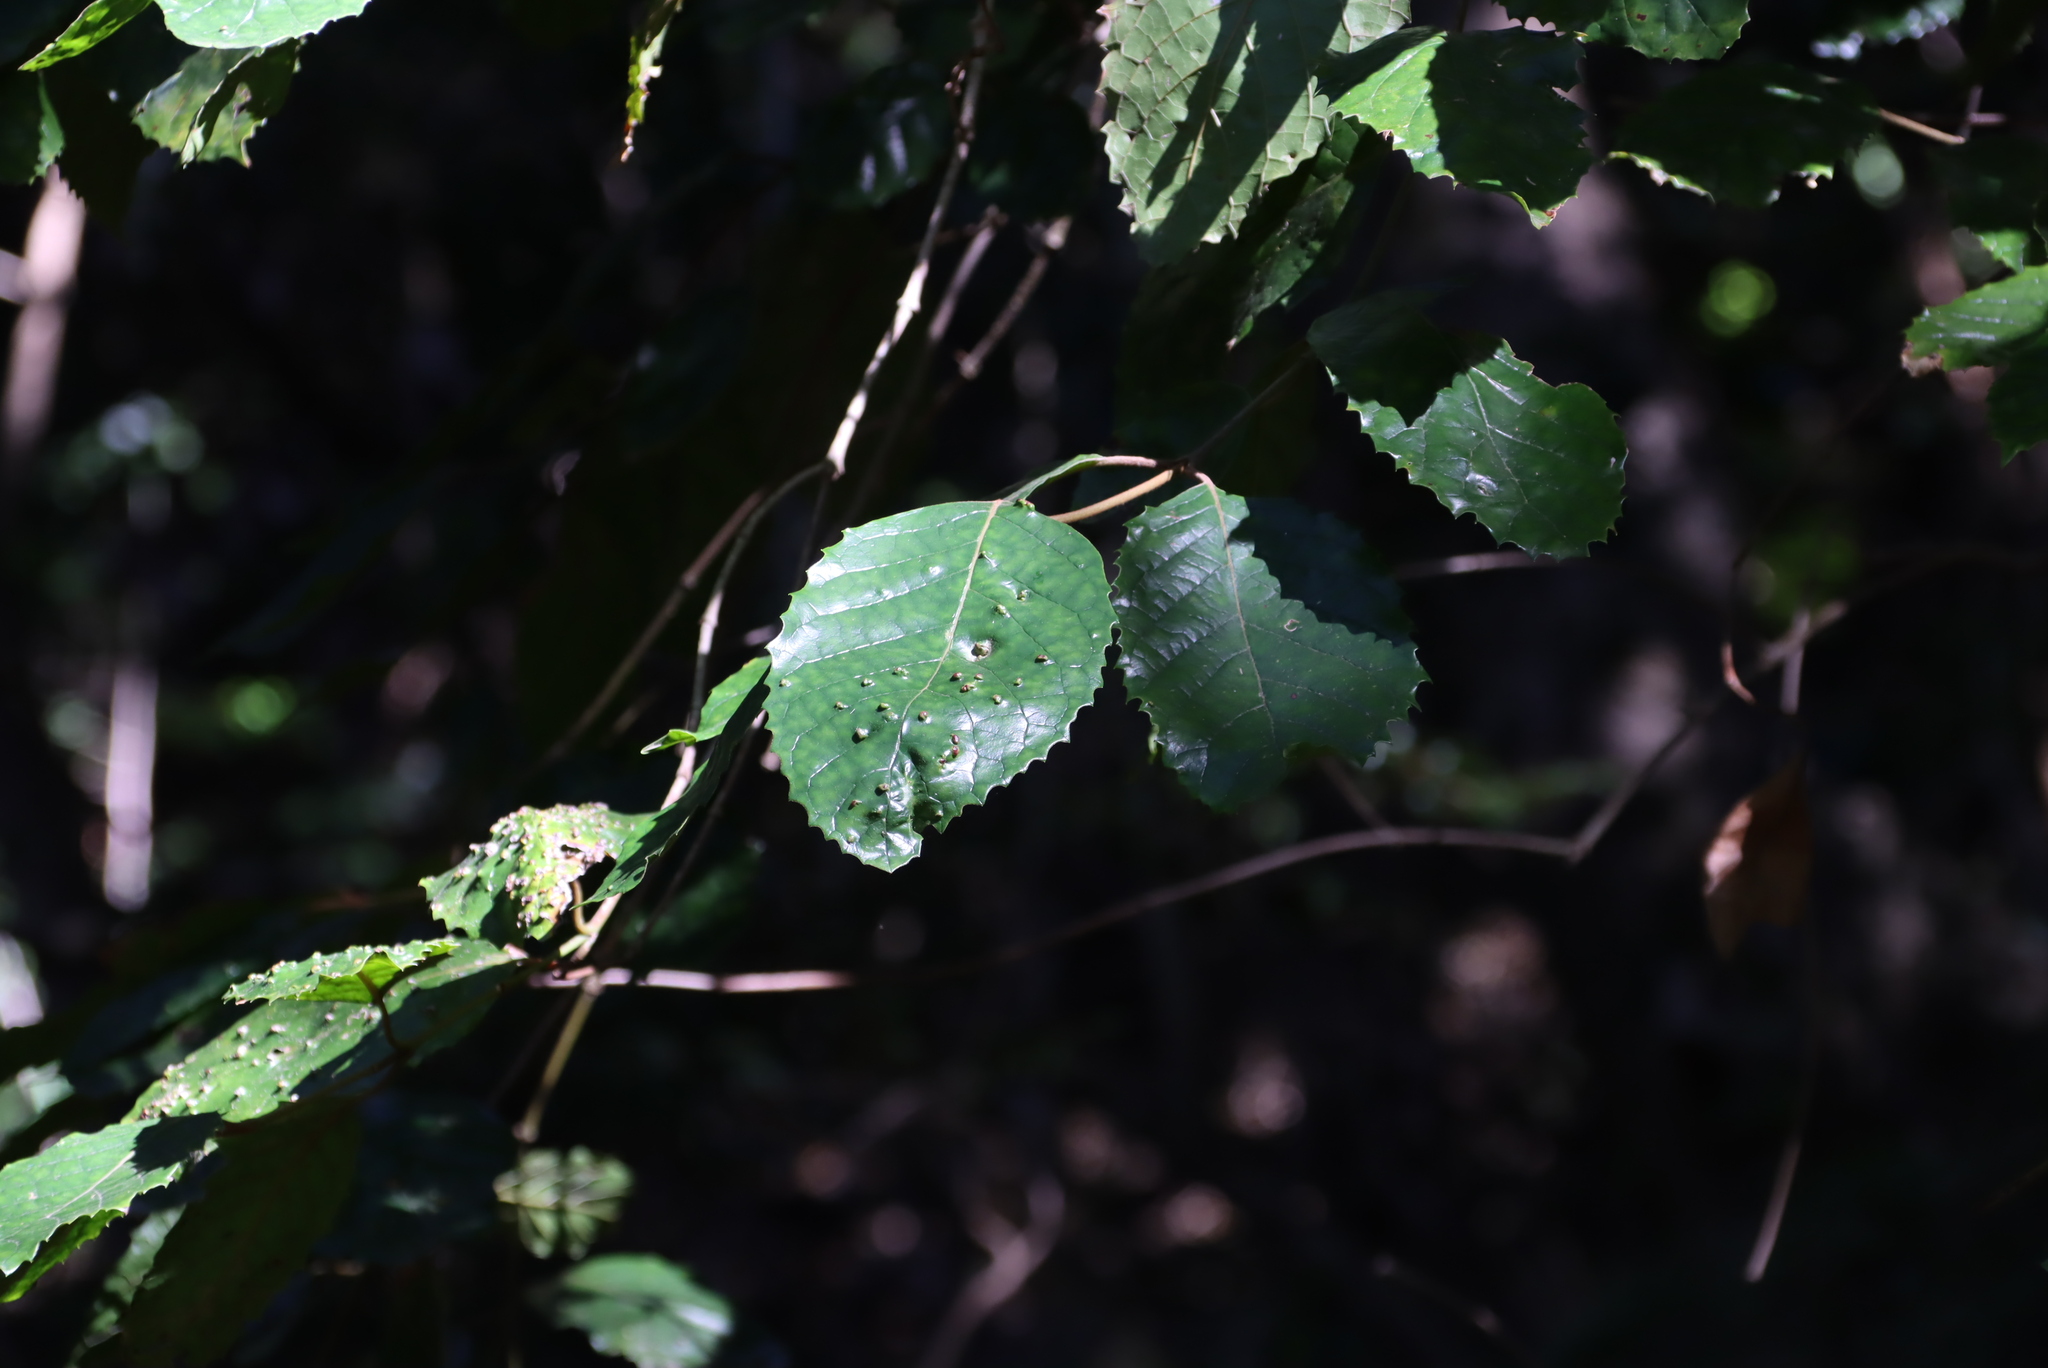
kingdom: Plantae
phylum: Tracheophyta
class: Magnoliopsida
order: Cornales
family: Curtisiaceae
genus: Curtisia
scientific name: Curtisia dentata
